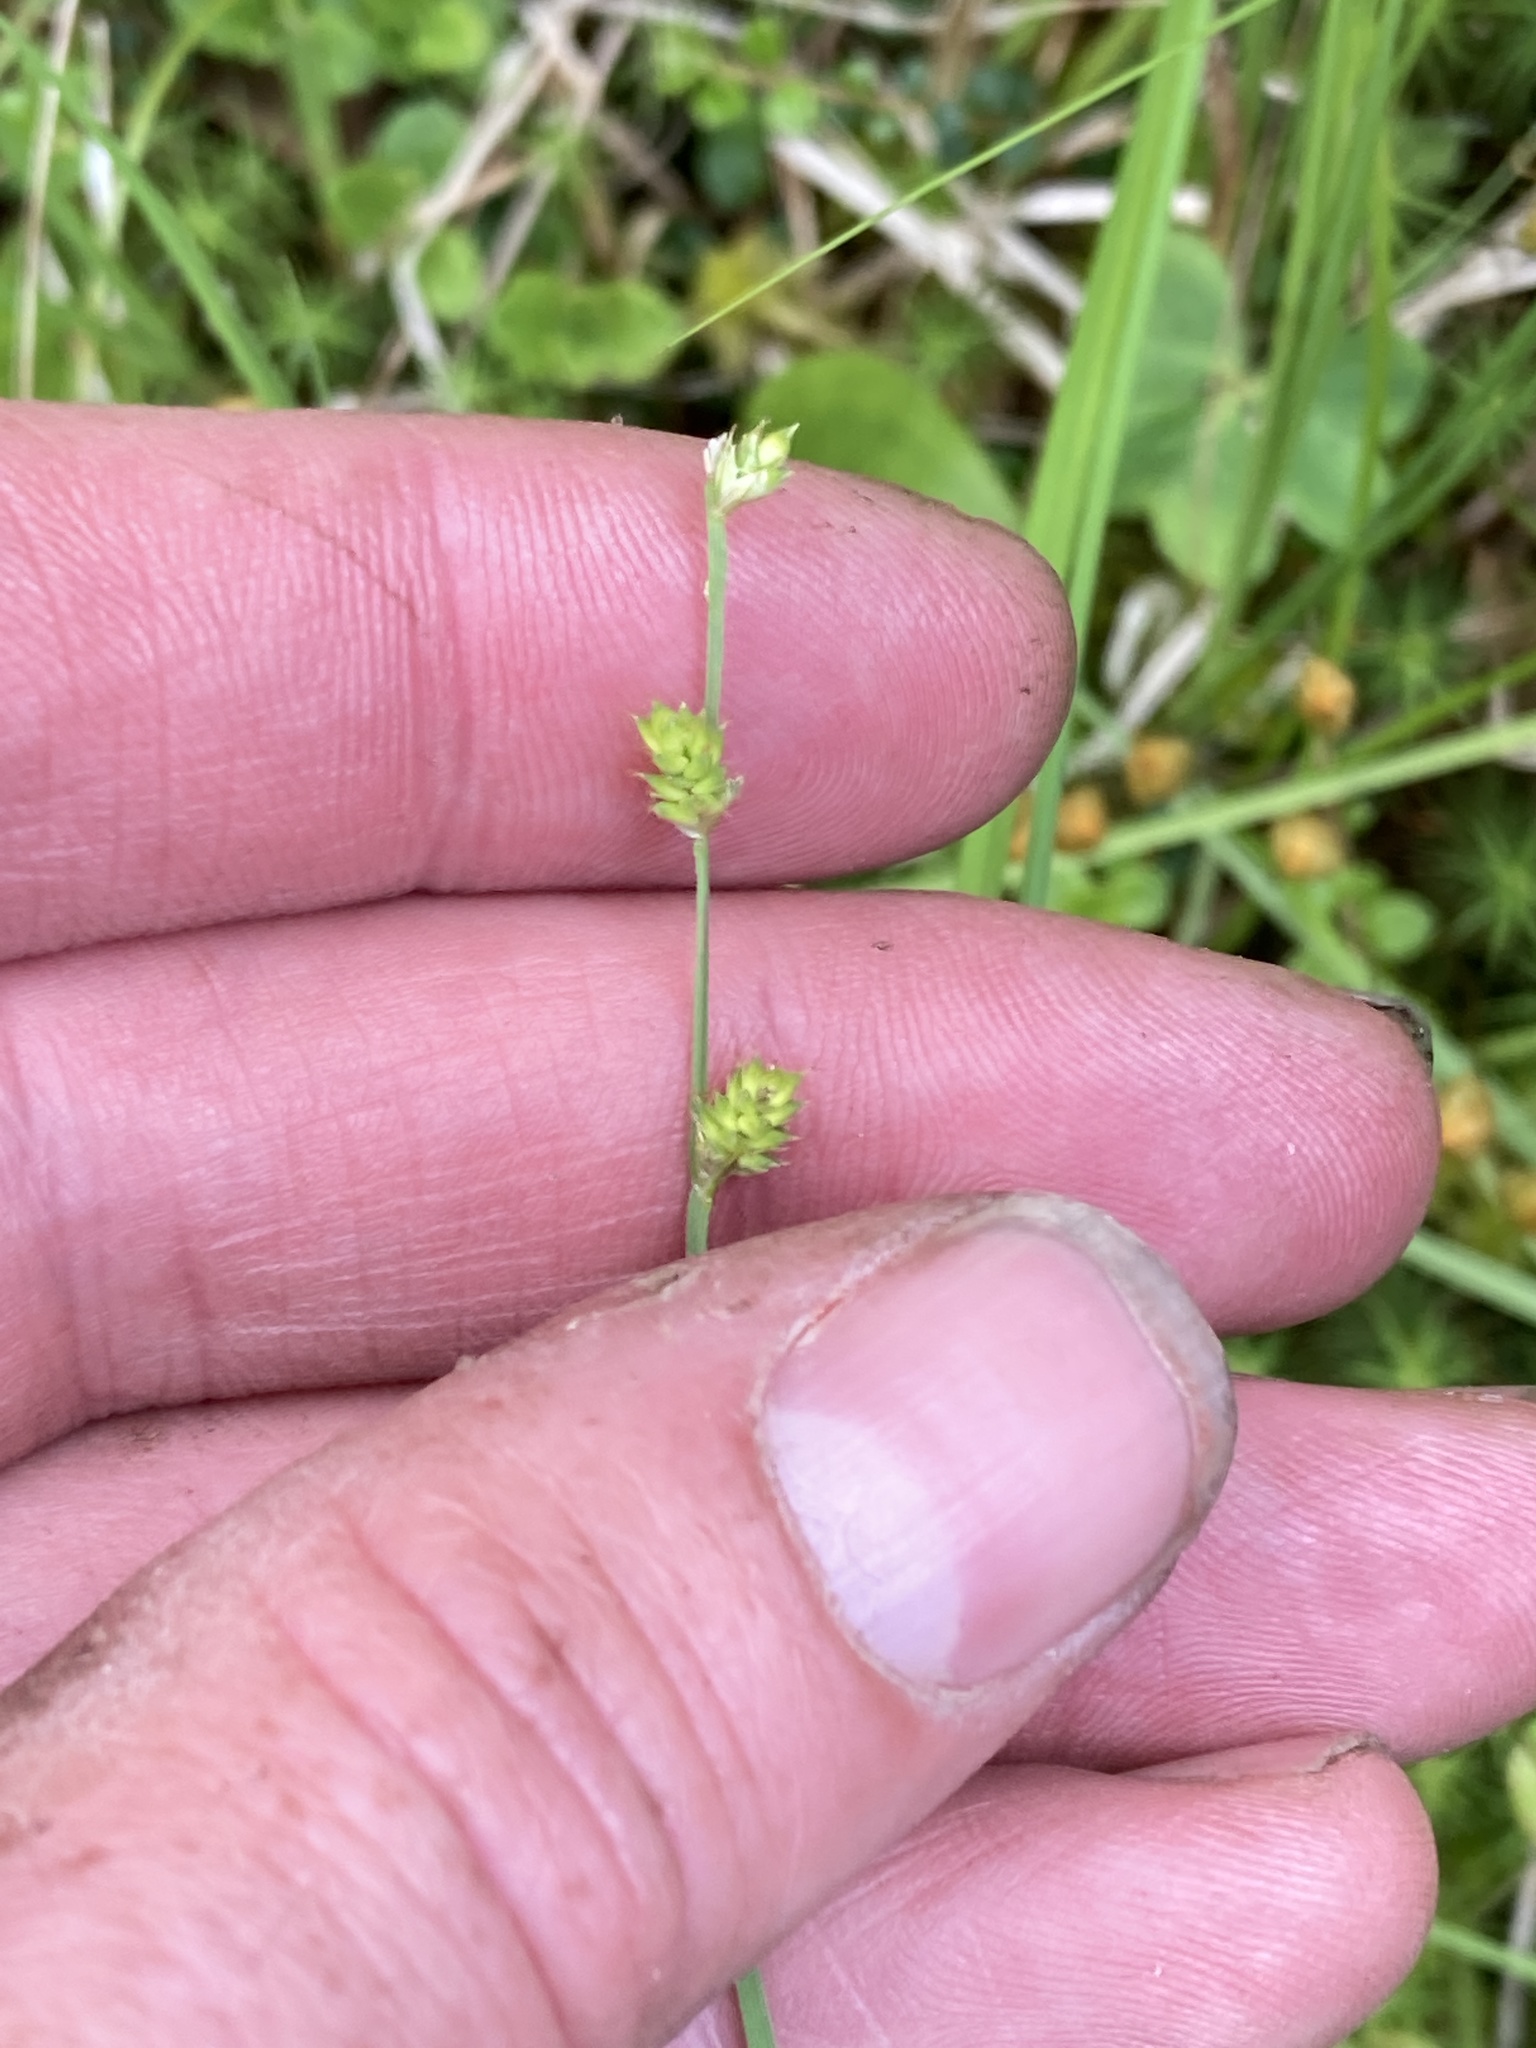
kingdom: Plantae
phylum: Tracheophyta
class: Liliopsida
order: Poales
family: Cyperaceae
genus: Carex
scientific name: Carex canescens
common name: White sedge
